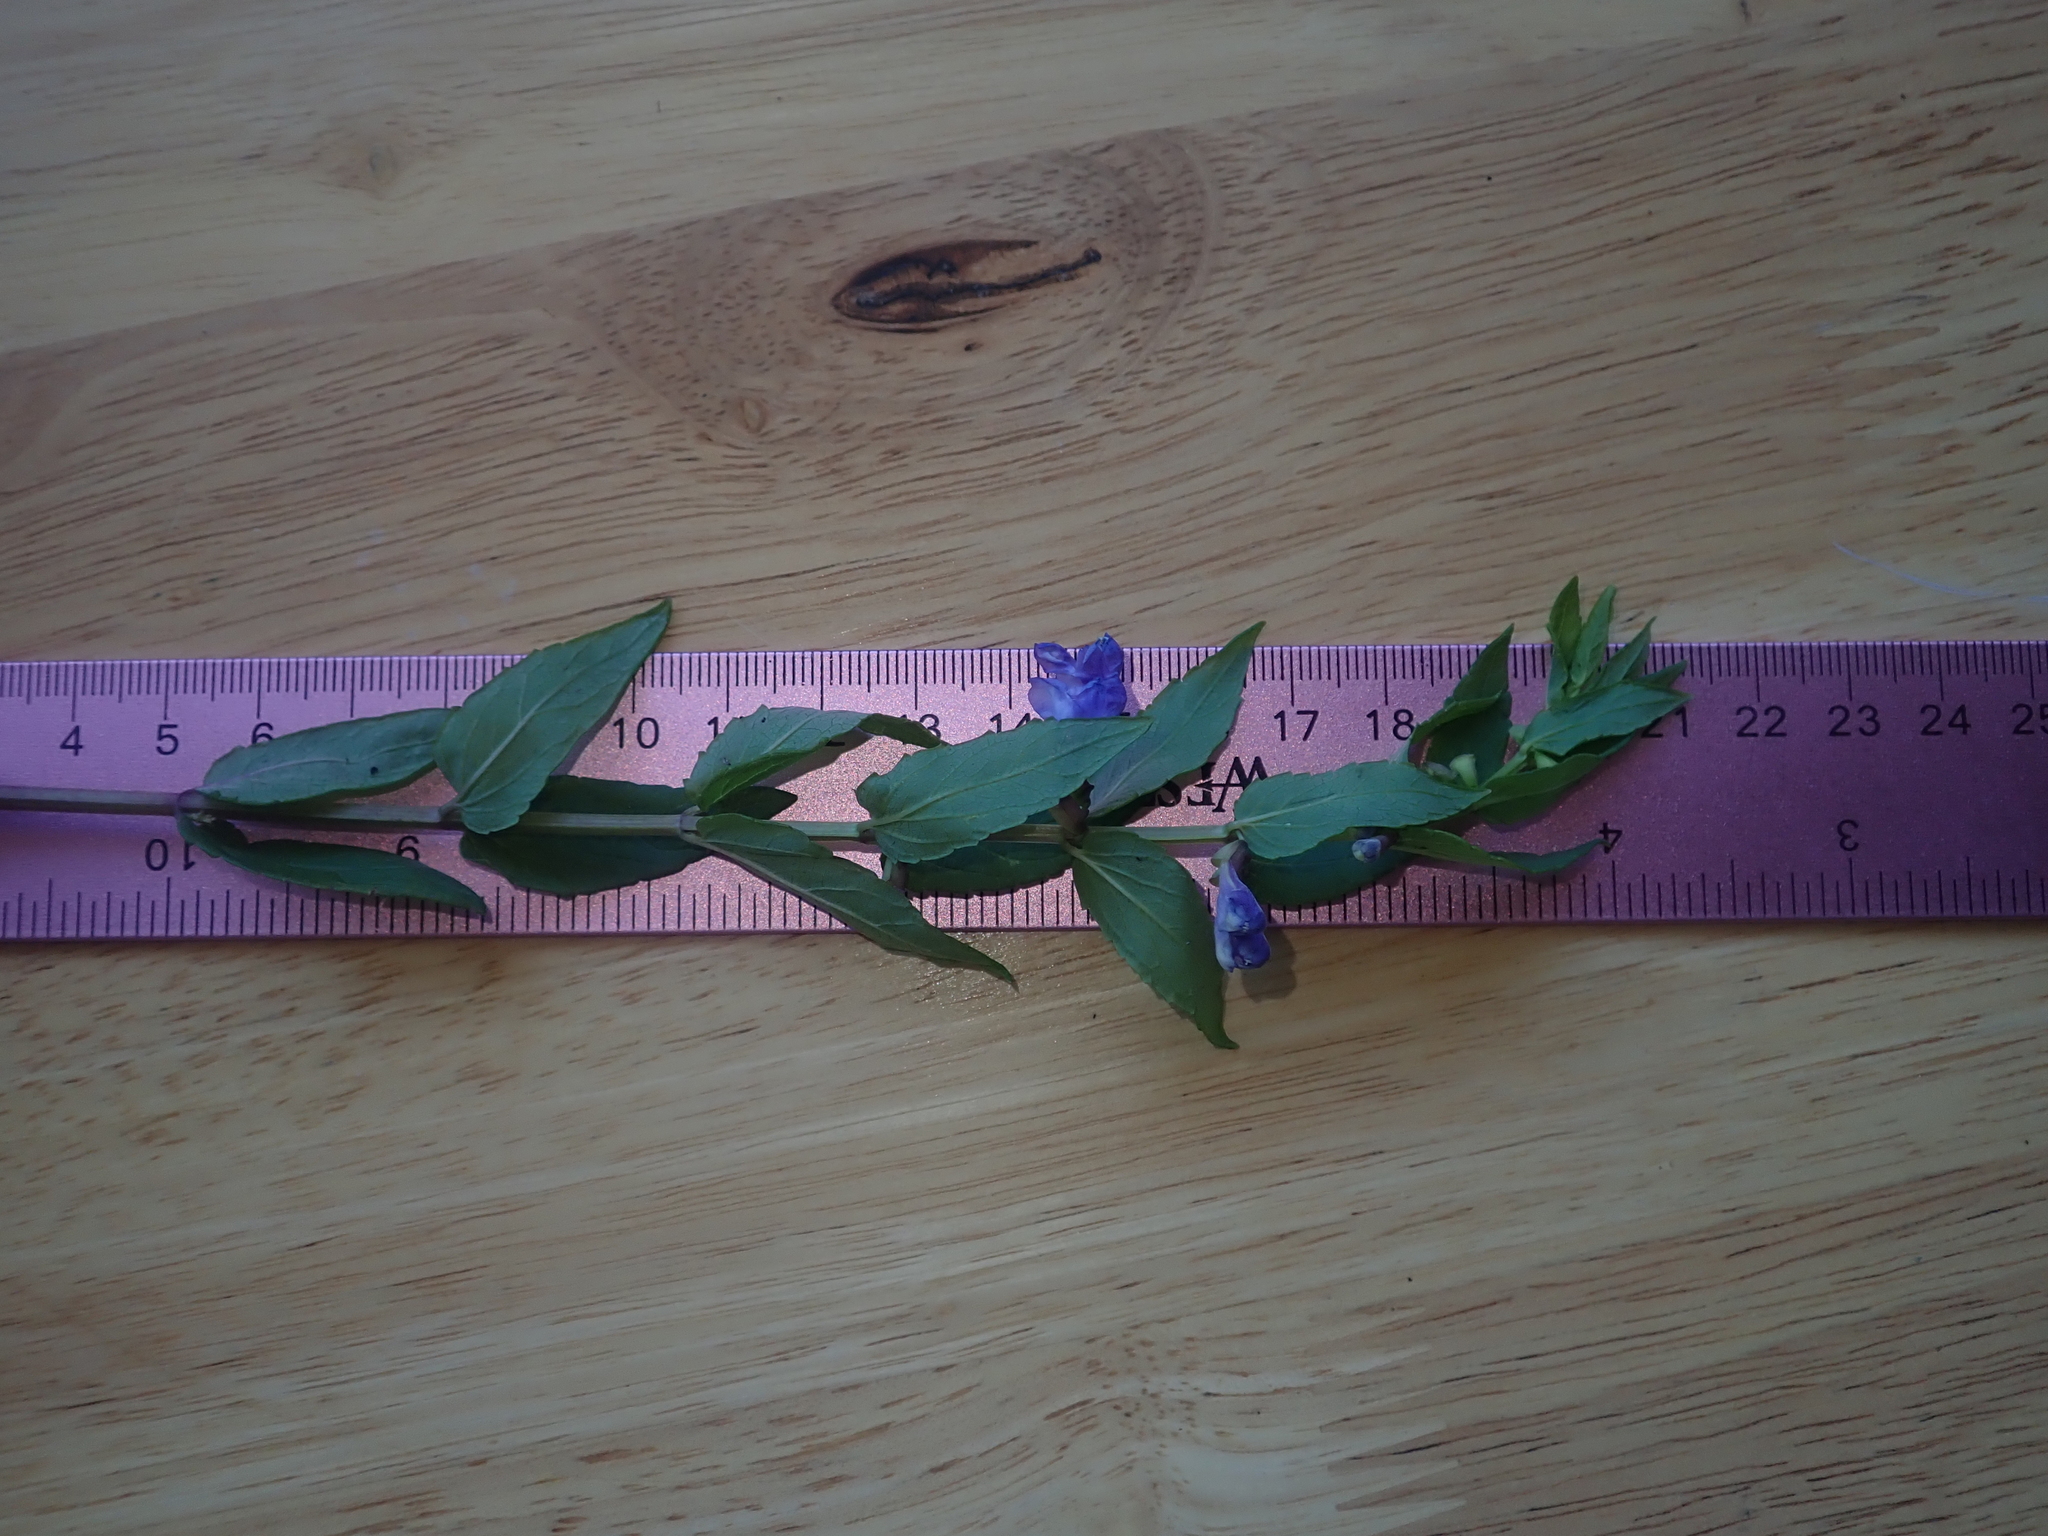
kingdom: Plantae
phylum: Tracheophyta
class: Magnoliopsida
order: Lamiales
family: Lamiaceae
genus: Scutellaria
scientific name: Scutellaria galericulata
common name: Skullcap
